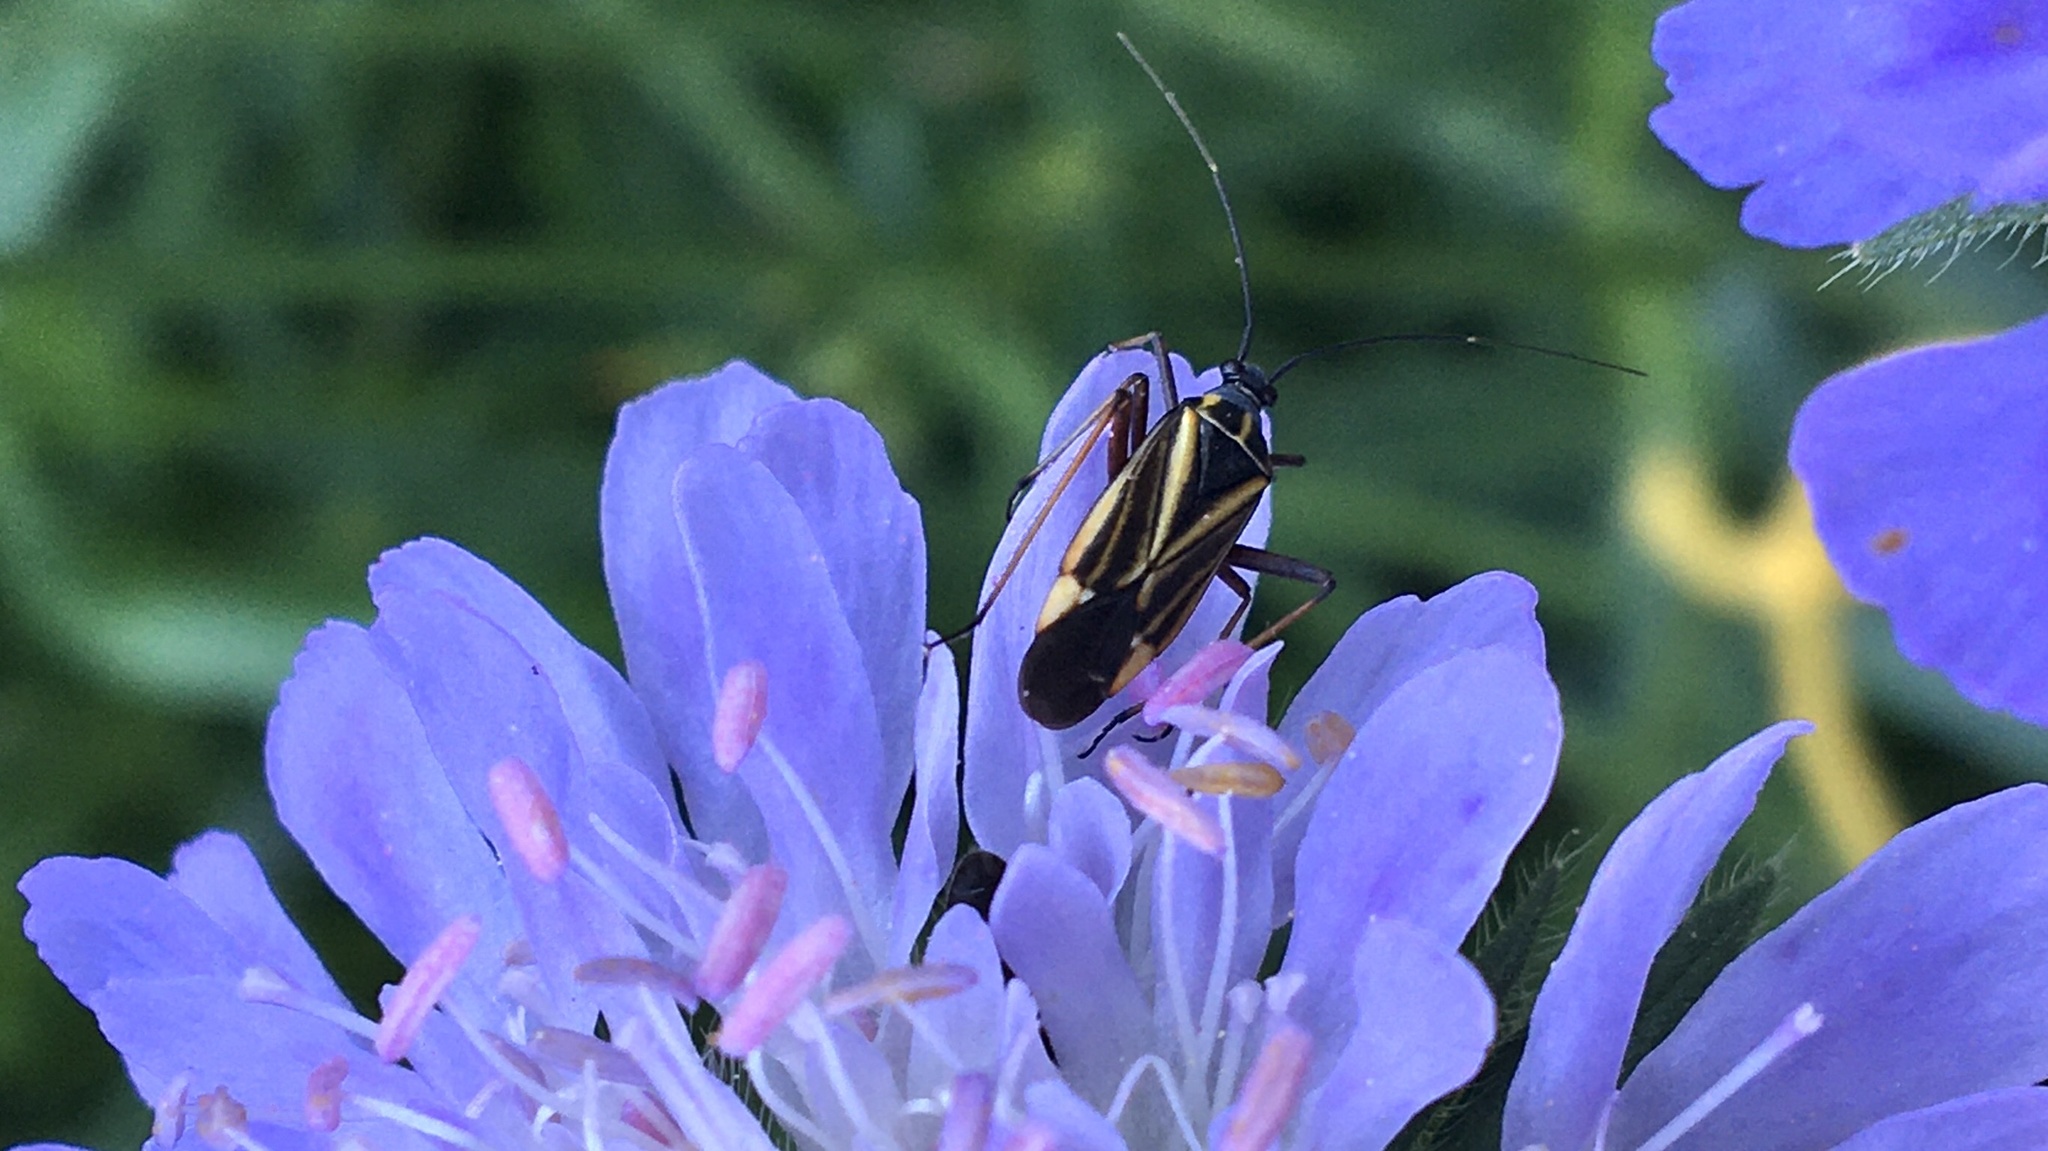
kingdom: Animalia
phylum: Arthropoda
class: Insecta
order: Hemiptera
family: Miridae
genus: Hadrodemus
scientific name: Hadrodemus m-flavum
